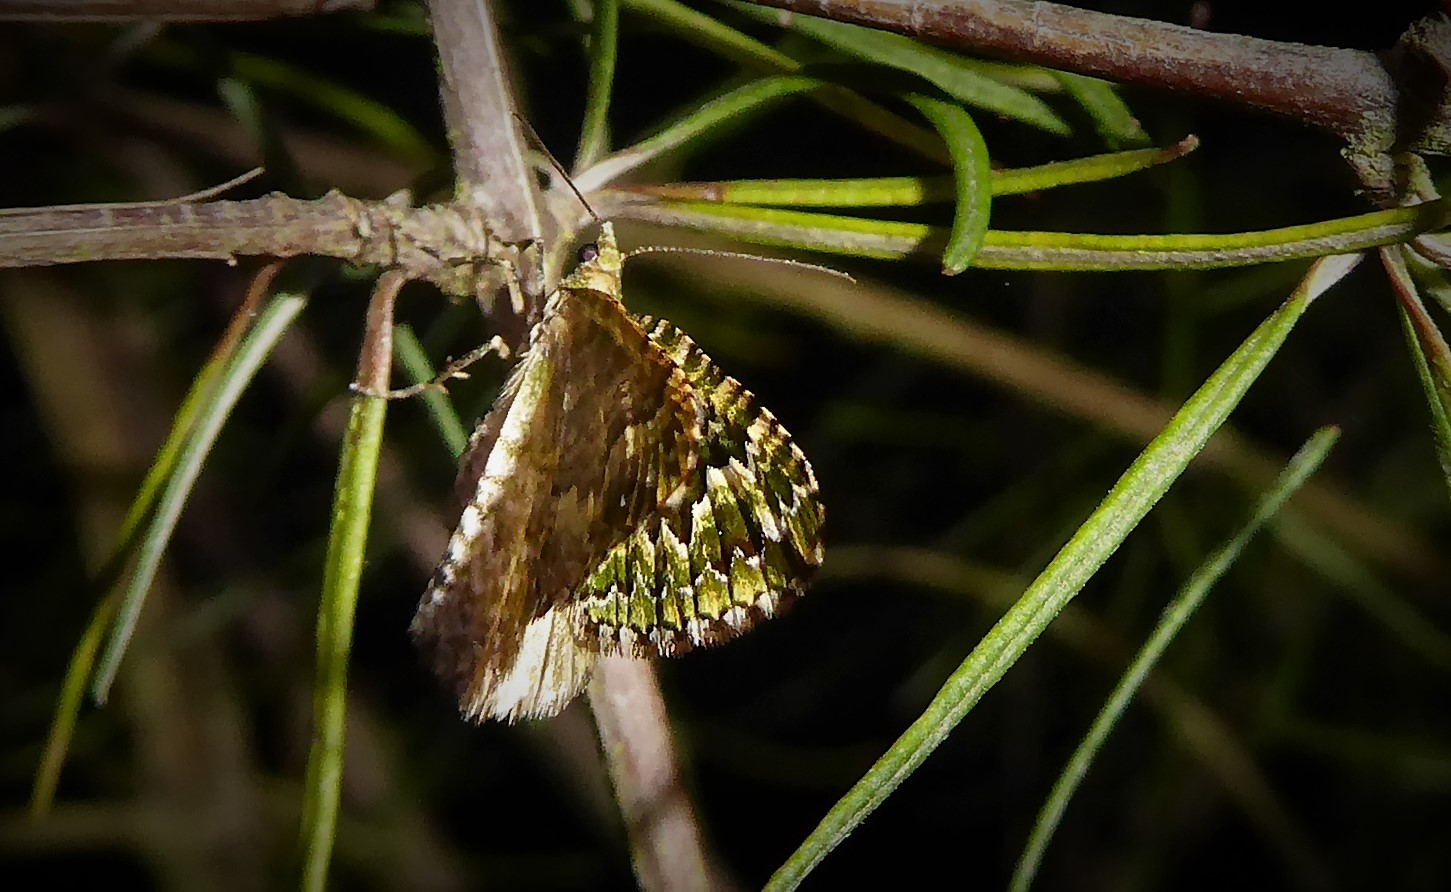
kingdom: Animalia
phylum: Arthropoda
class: Insecta
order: Lepidoptera
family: Geometridae
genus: Asaphodes
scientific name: Asaphodes beata
